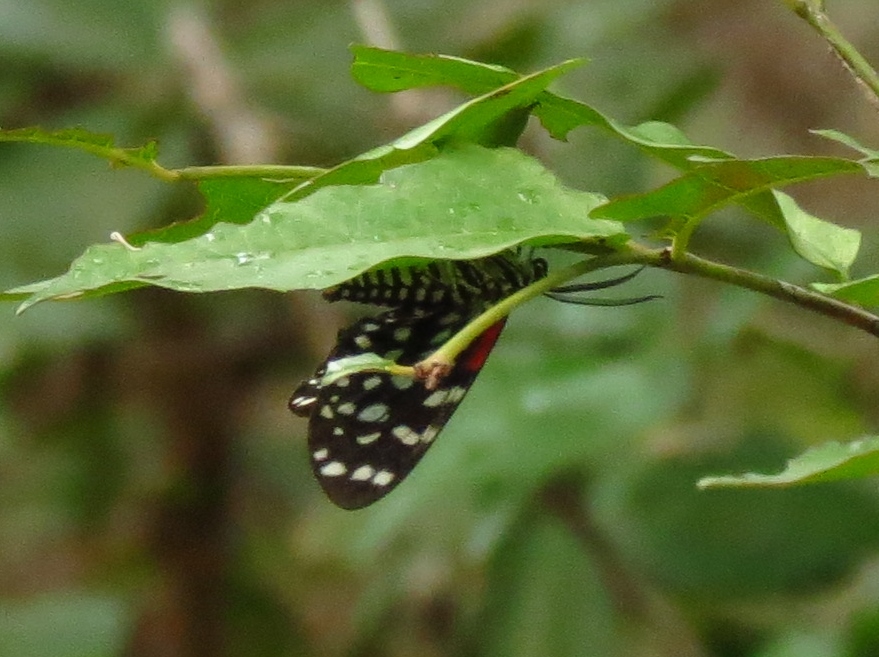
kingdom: Animalia
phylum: Arthropoda
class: Insecta
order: Lepidoptera
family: Erebidae
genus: Composia
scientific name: Composia credula
